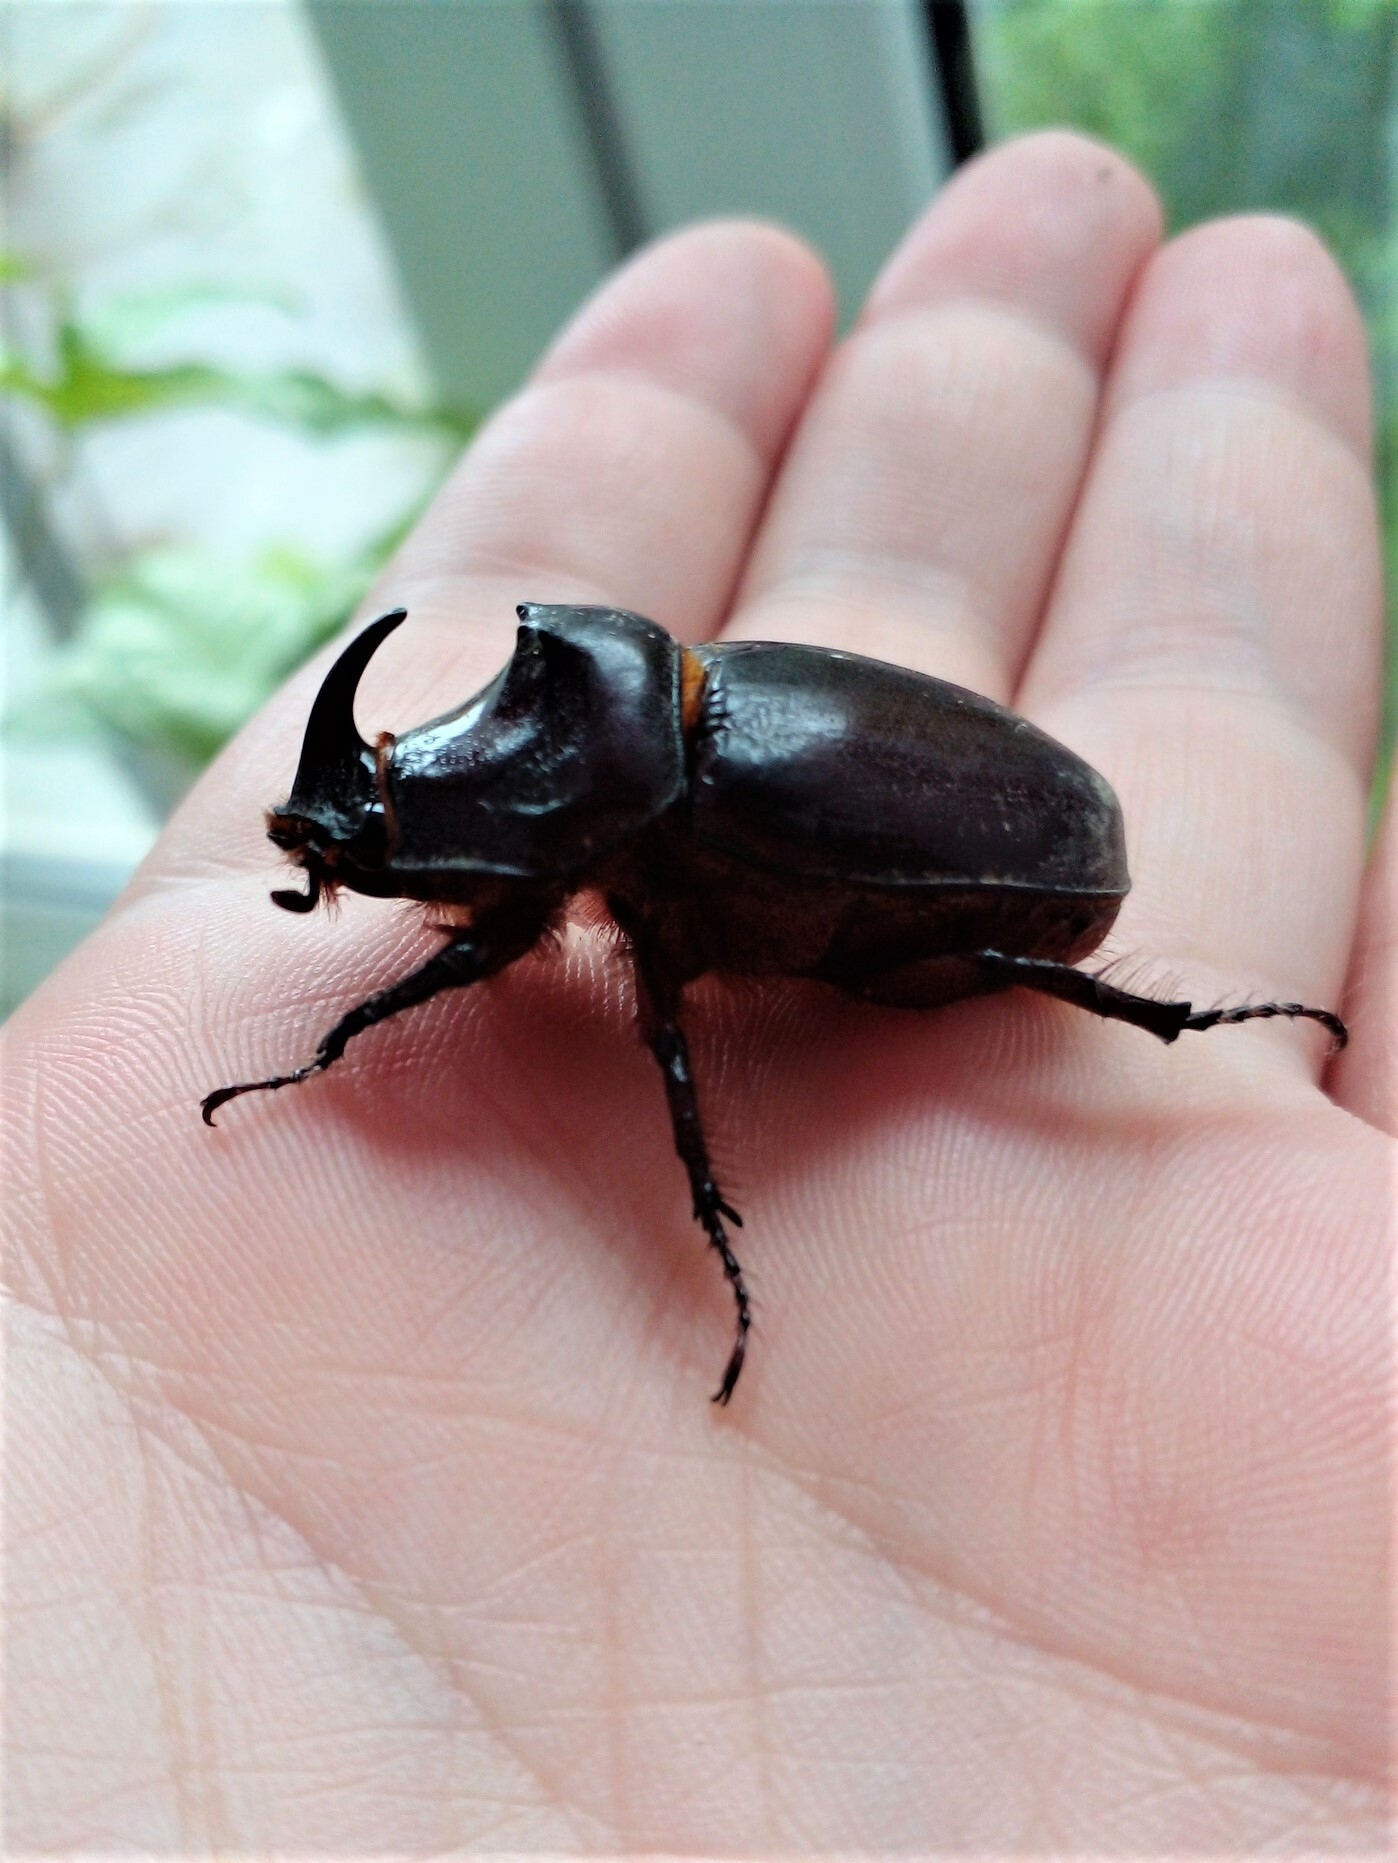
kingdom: Animalia
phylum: Arthropoda
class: Insecta
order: Coleoptera
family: Scarabaeidae
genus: Oryctes
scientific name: Oryctes nasicornis
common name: European rhinoceros beetle
